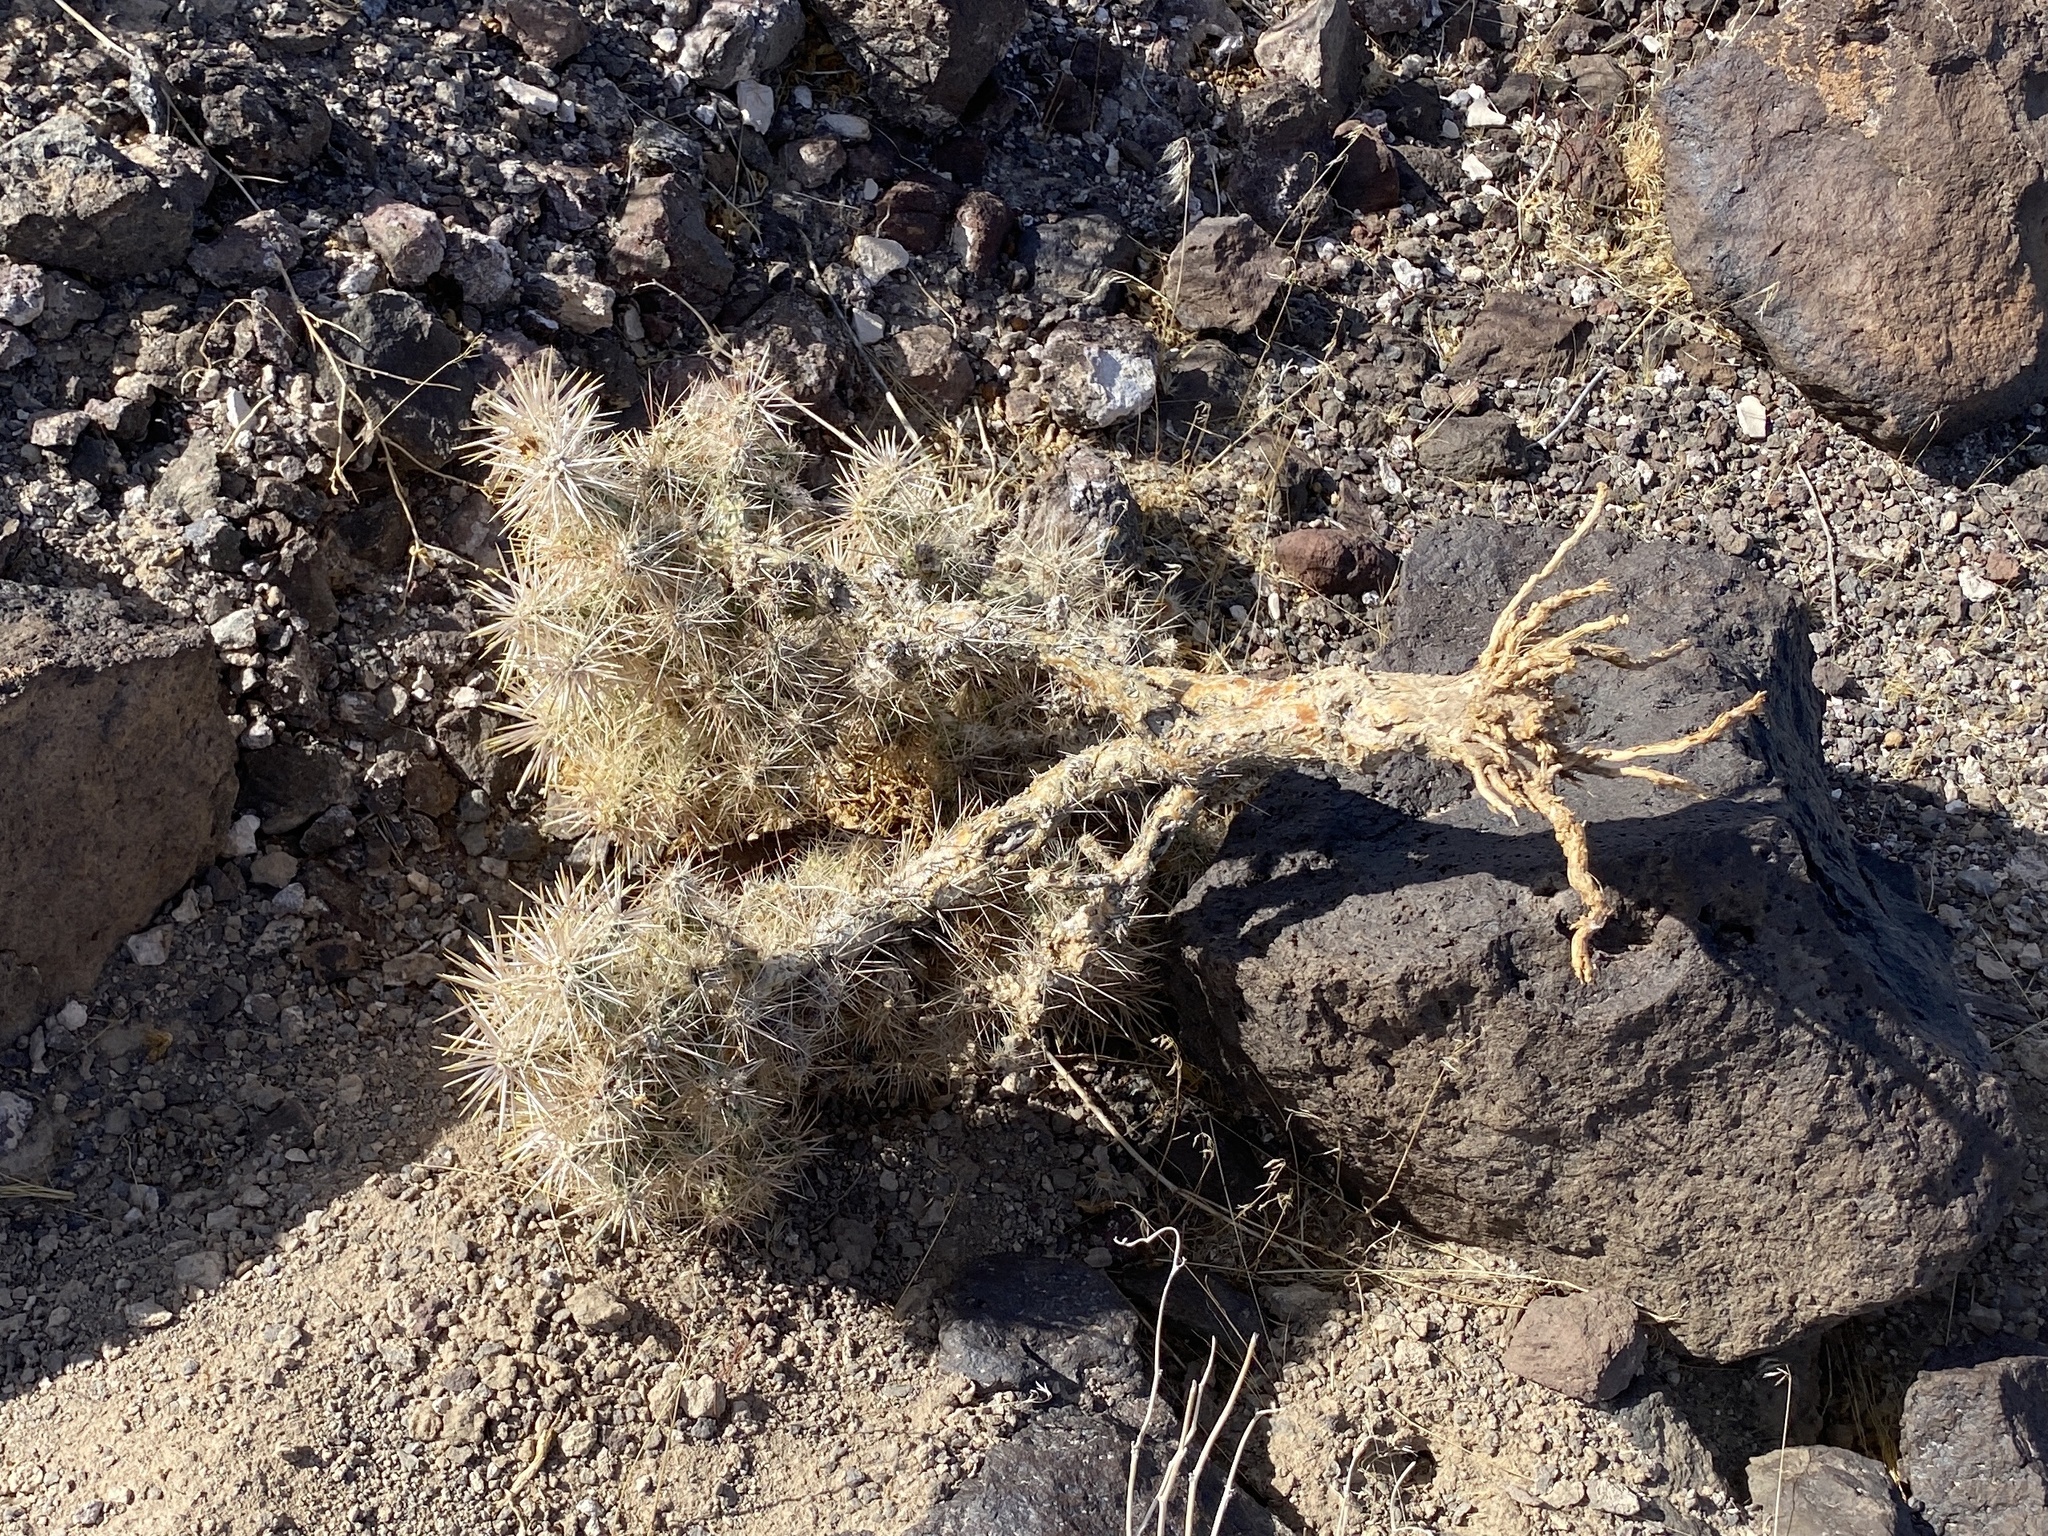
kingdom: Plantae
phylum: Tracheophyta
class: Magnoliopsida
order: Caryophyllales
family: Cactaceae
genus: Cylindropuntia
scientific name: Cylindropuntia echinocarpa
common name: Ground cholla
